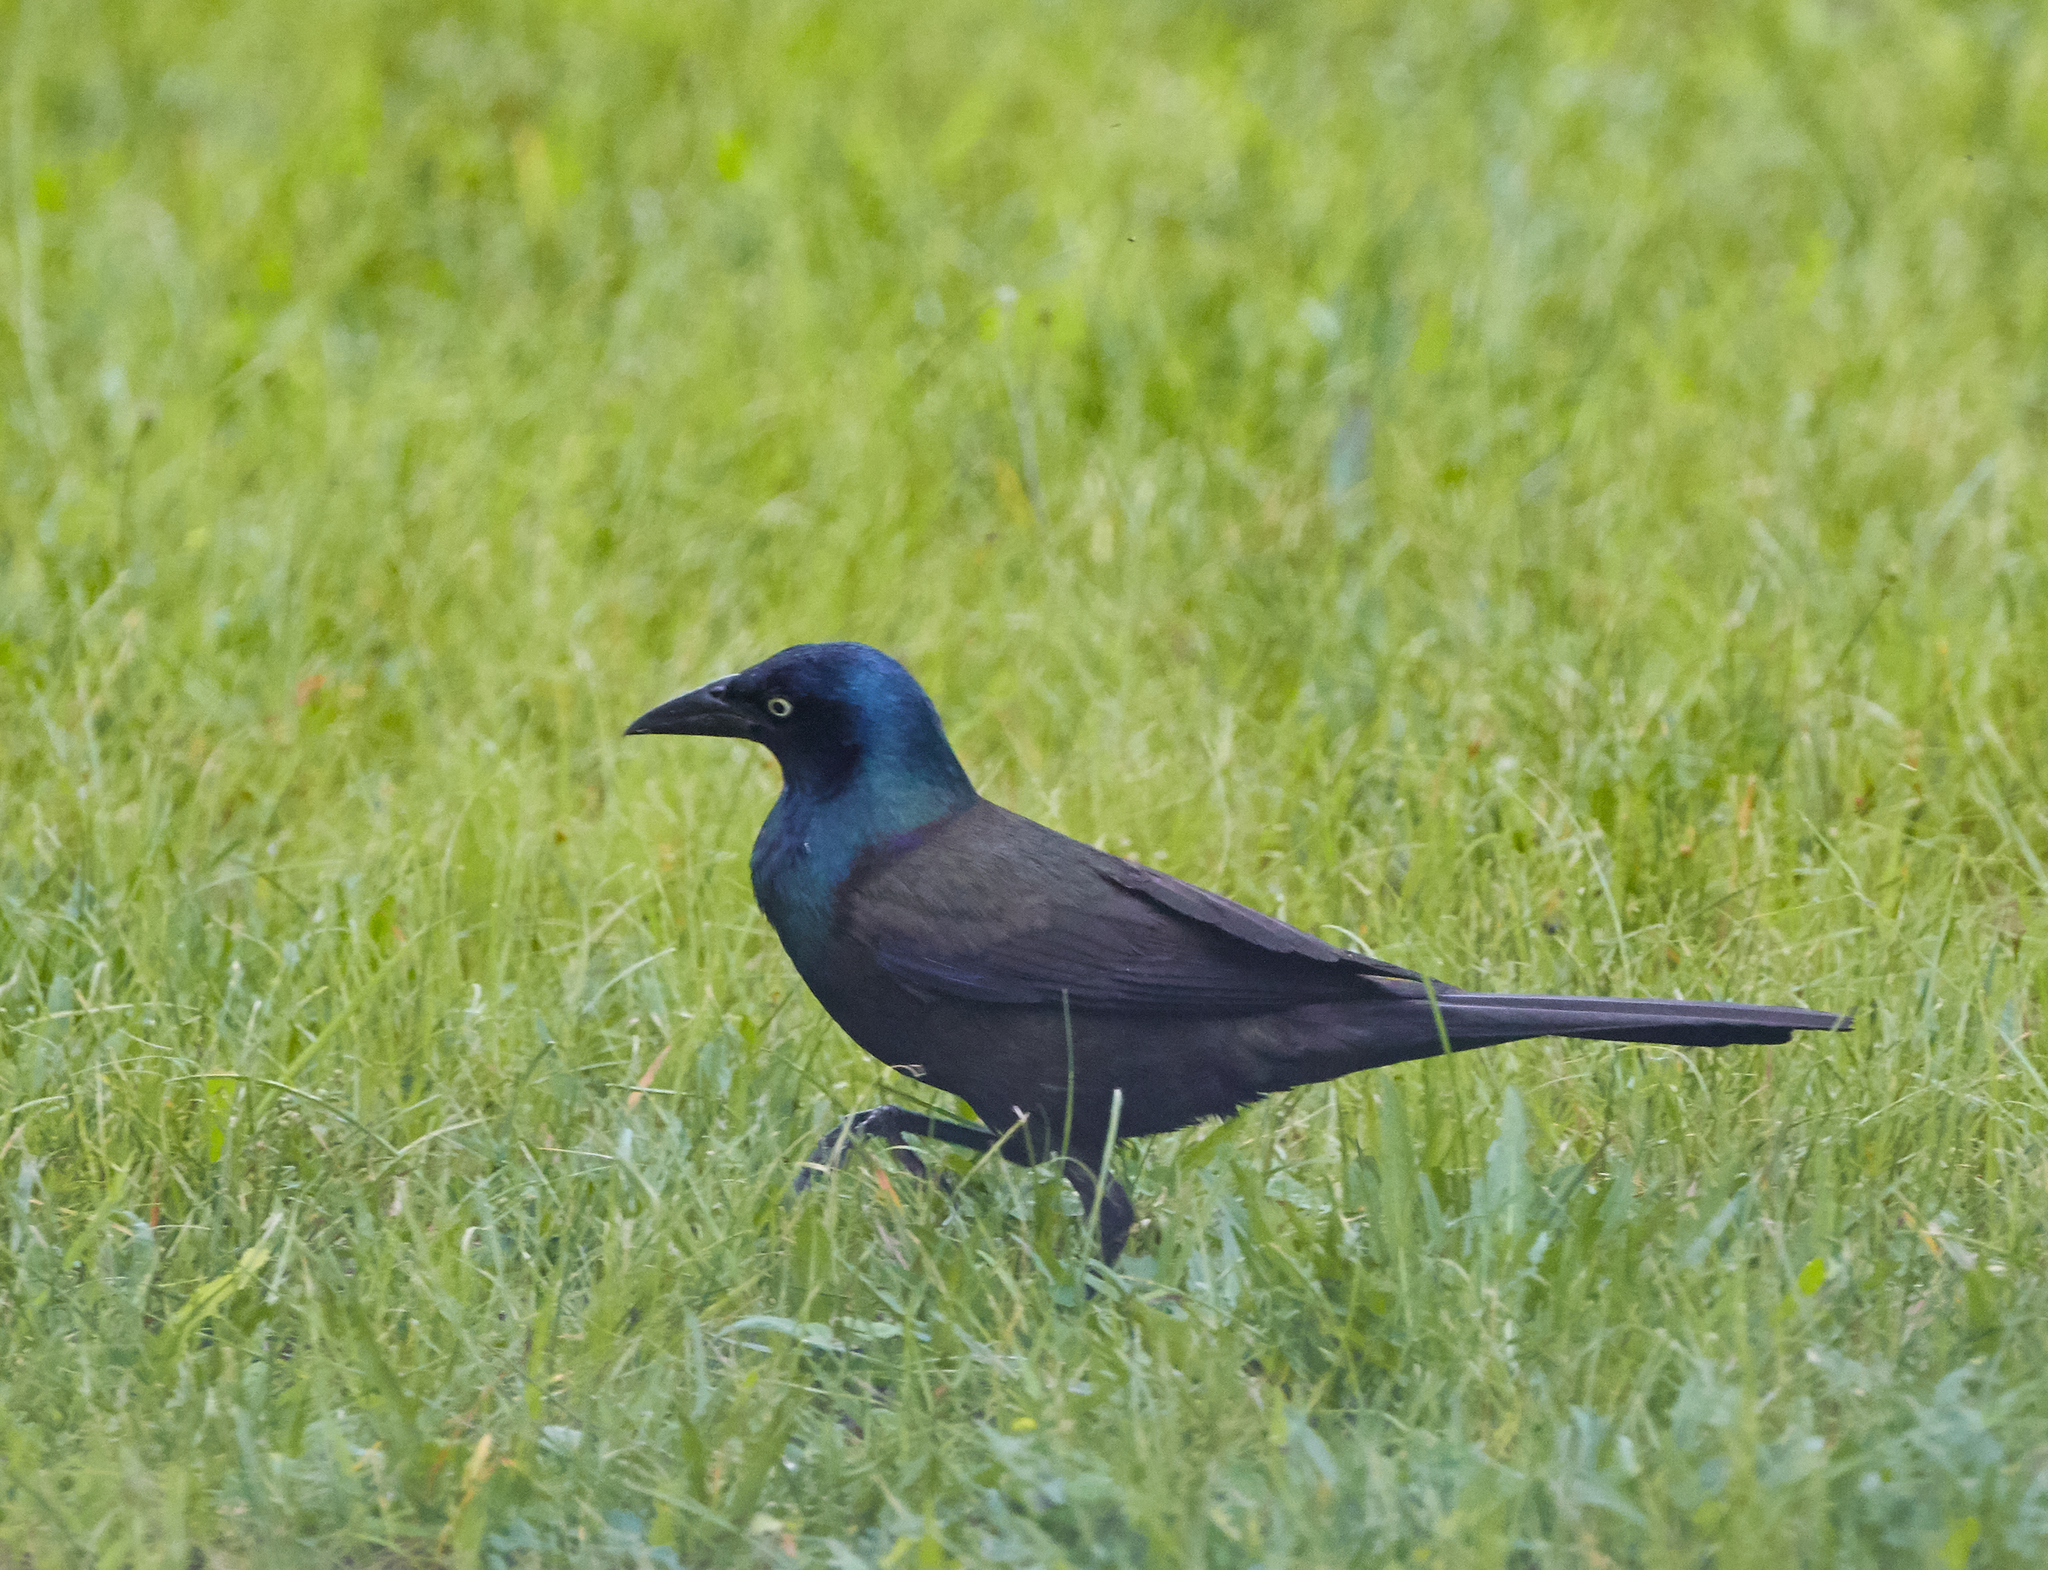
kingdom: Animalia
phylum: Chordata
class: Aves
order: Passeriformes
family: Icteridae
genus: Quiscalus
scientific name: Quiscalus quiscula
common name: Common grackle
